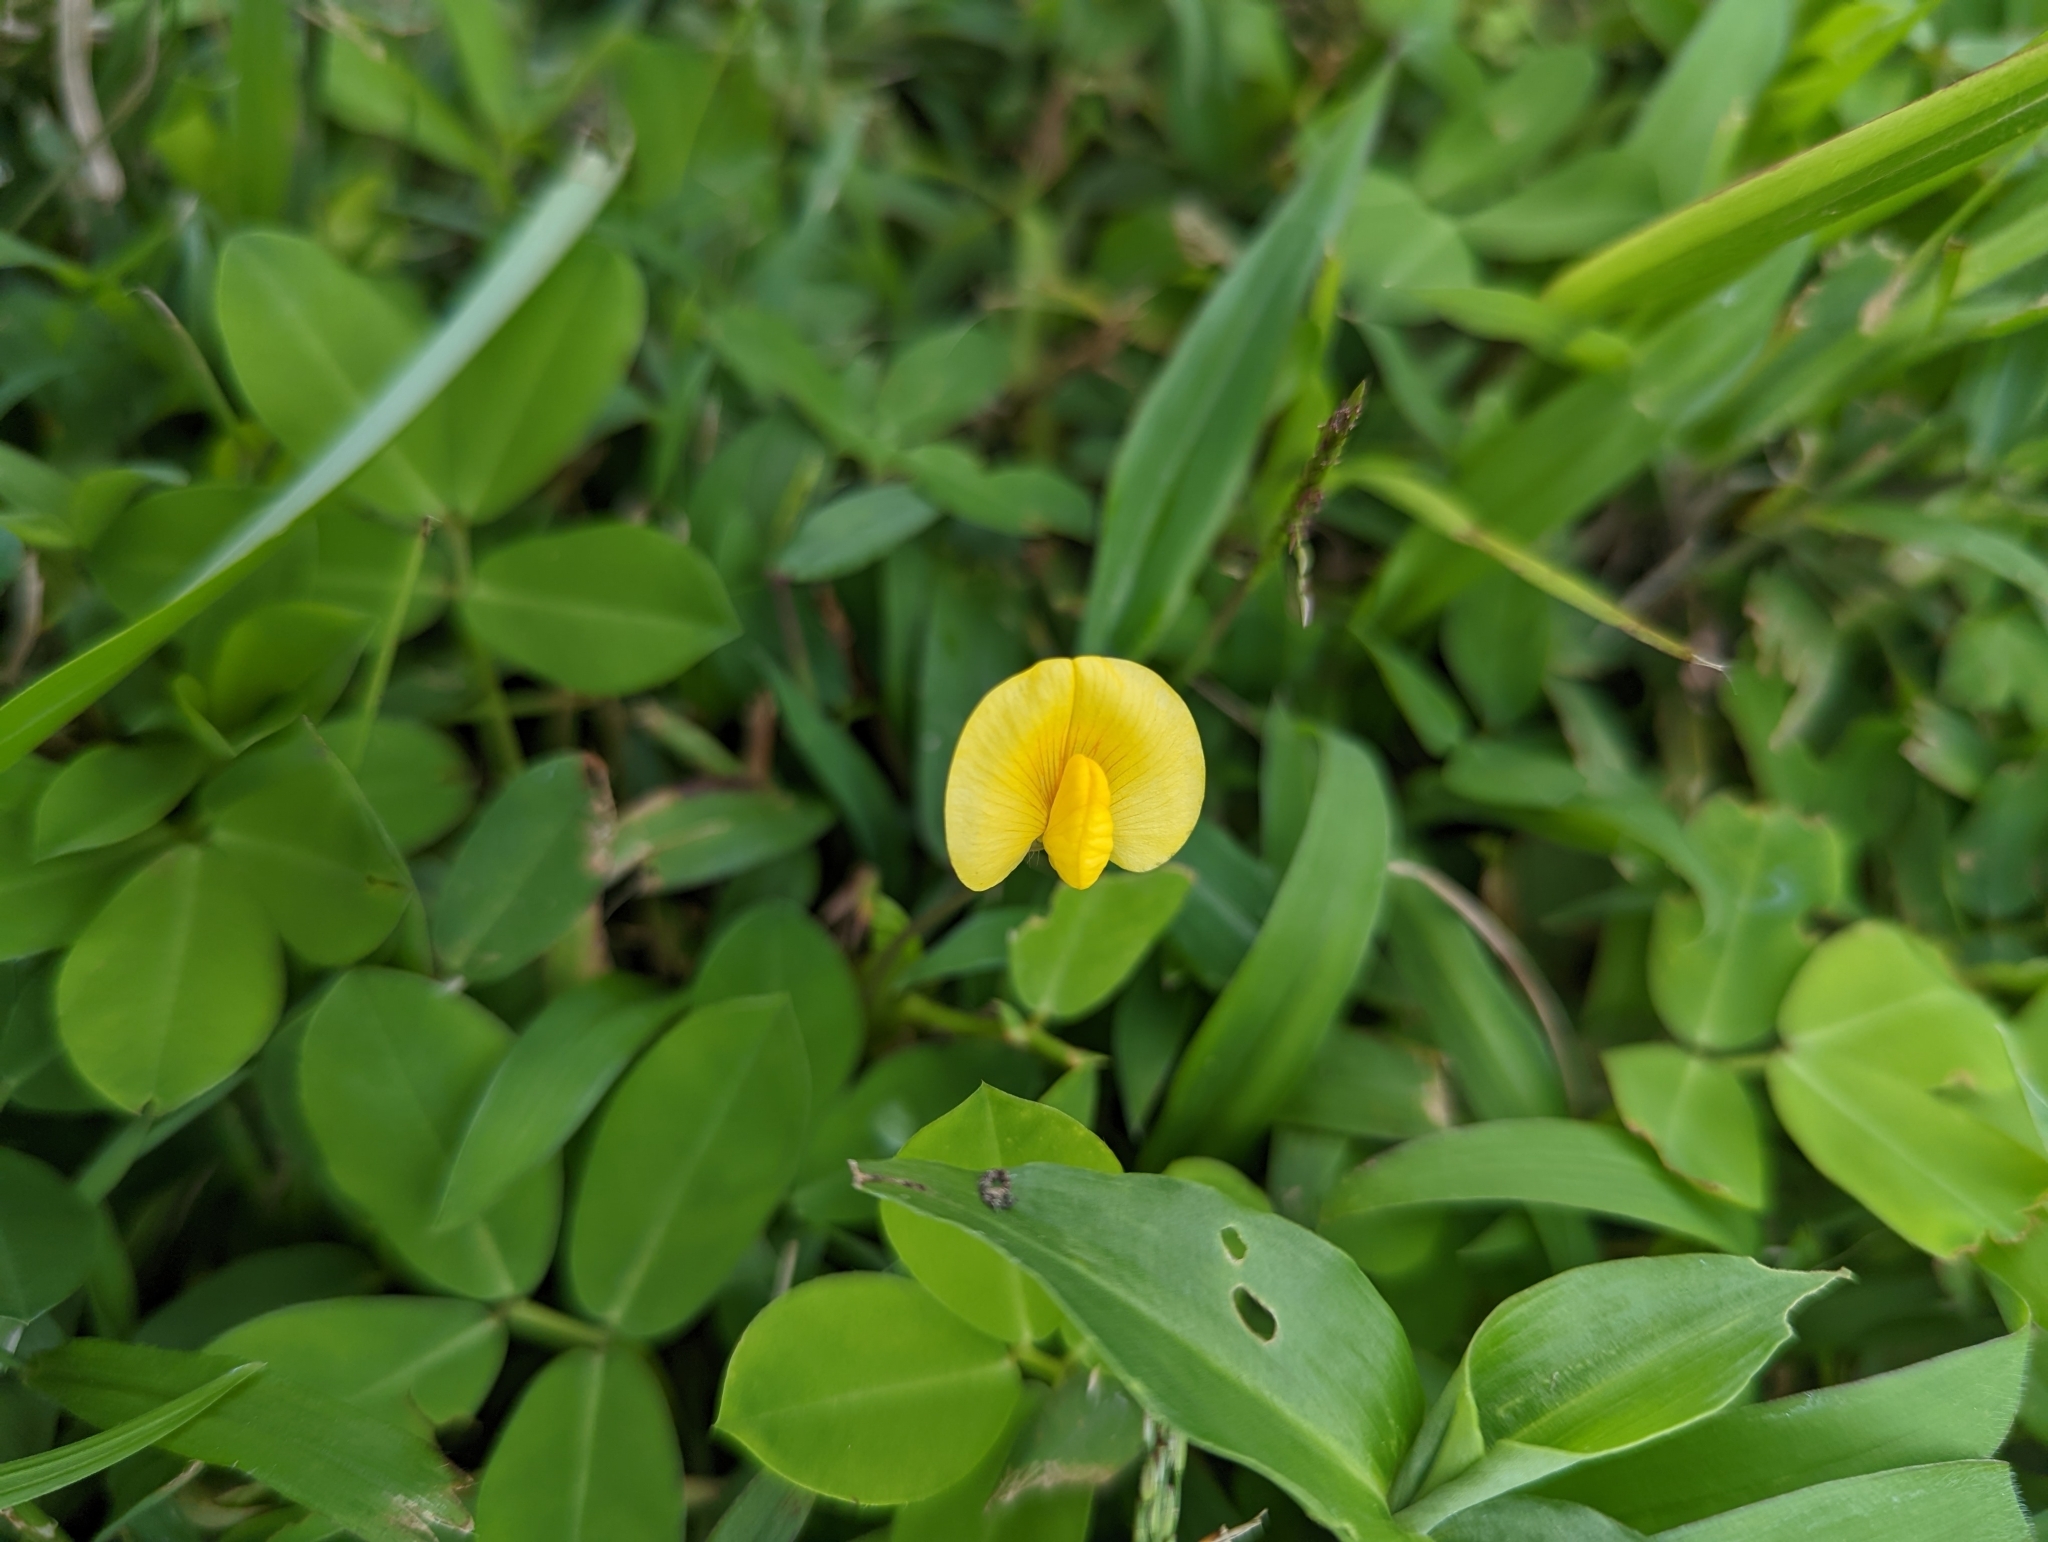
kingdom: Plantae
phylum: Tracheophyta
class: Magnoliopsida
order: Fabales
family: Fabaceae
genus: Arachis
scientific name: Arachis pintoi
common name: Pinto peanut
